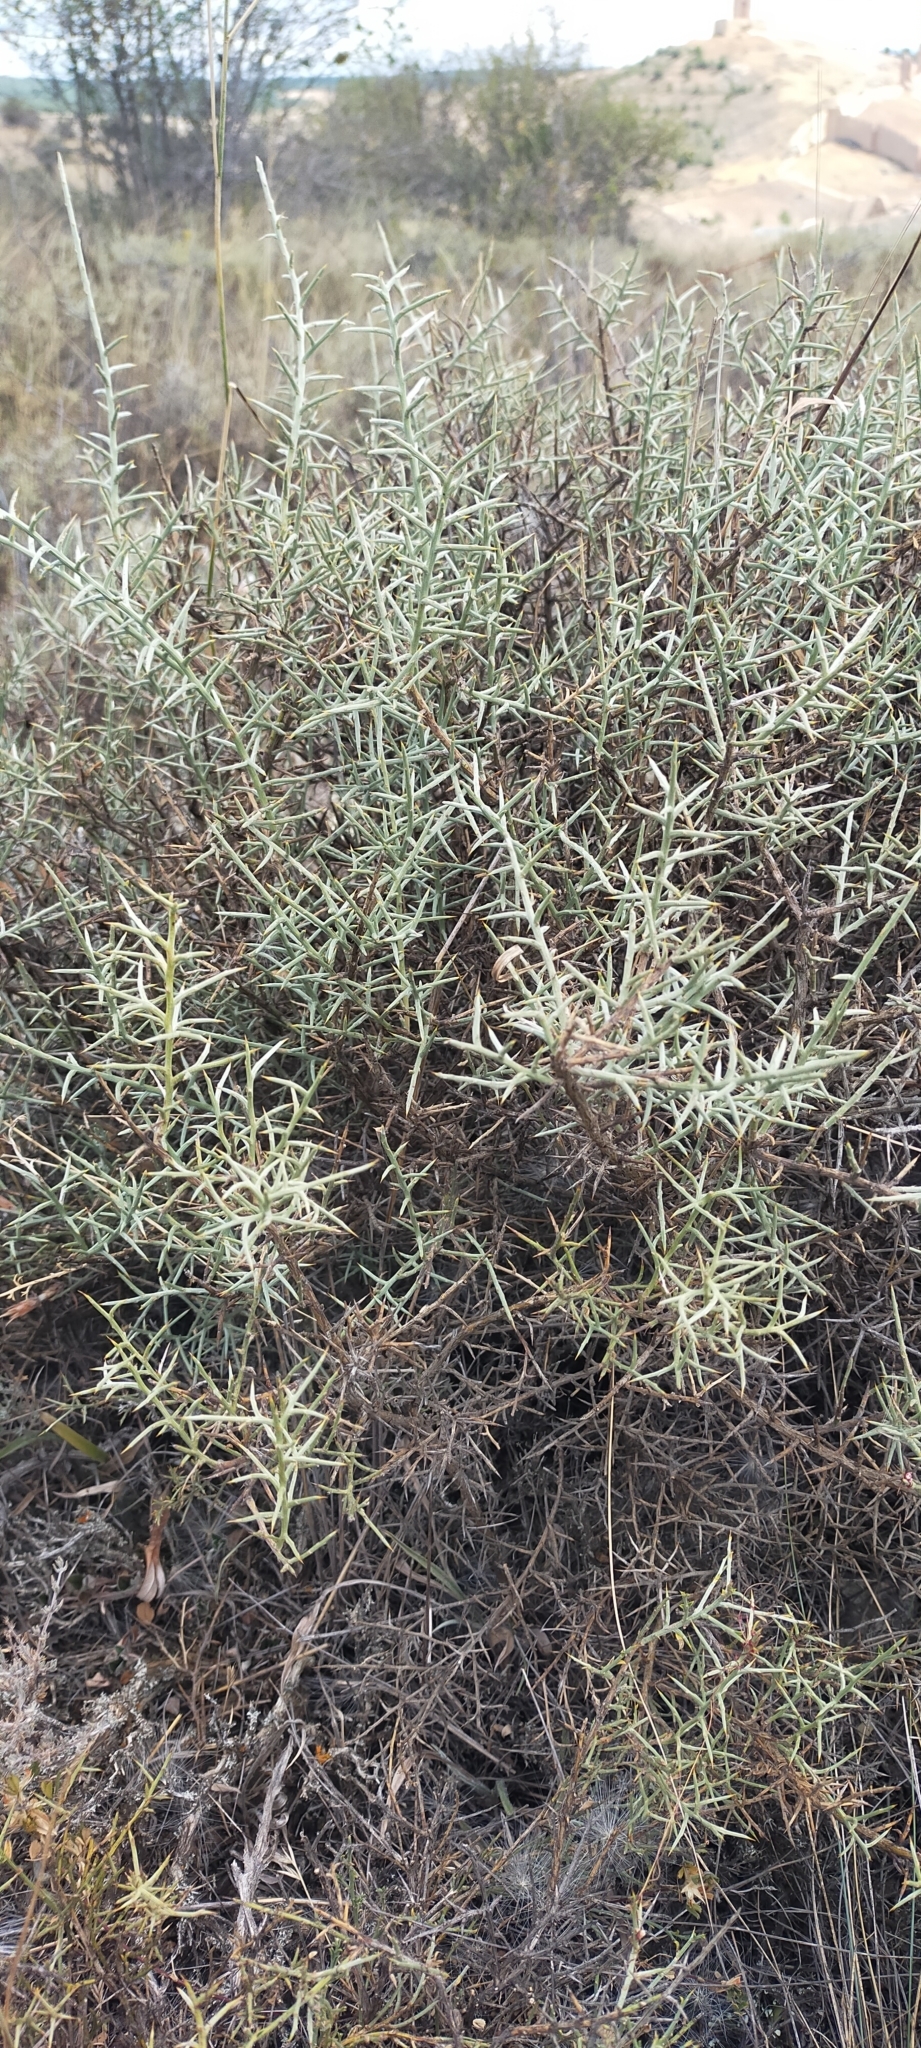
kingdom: Plantae
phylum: Tracheophyta
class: Magnoliopsida
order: Fabales
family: Fabaceae
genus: Genista
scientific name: Genista scorpius
